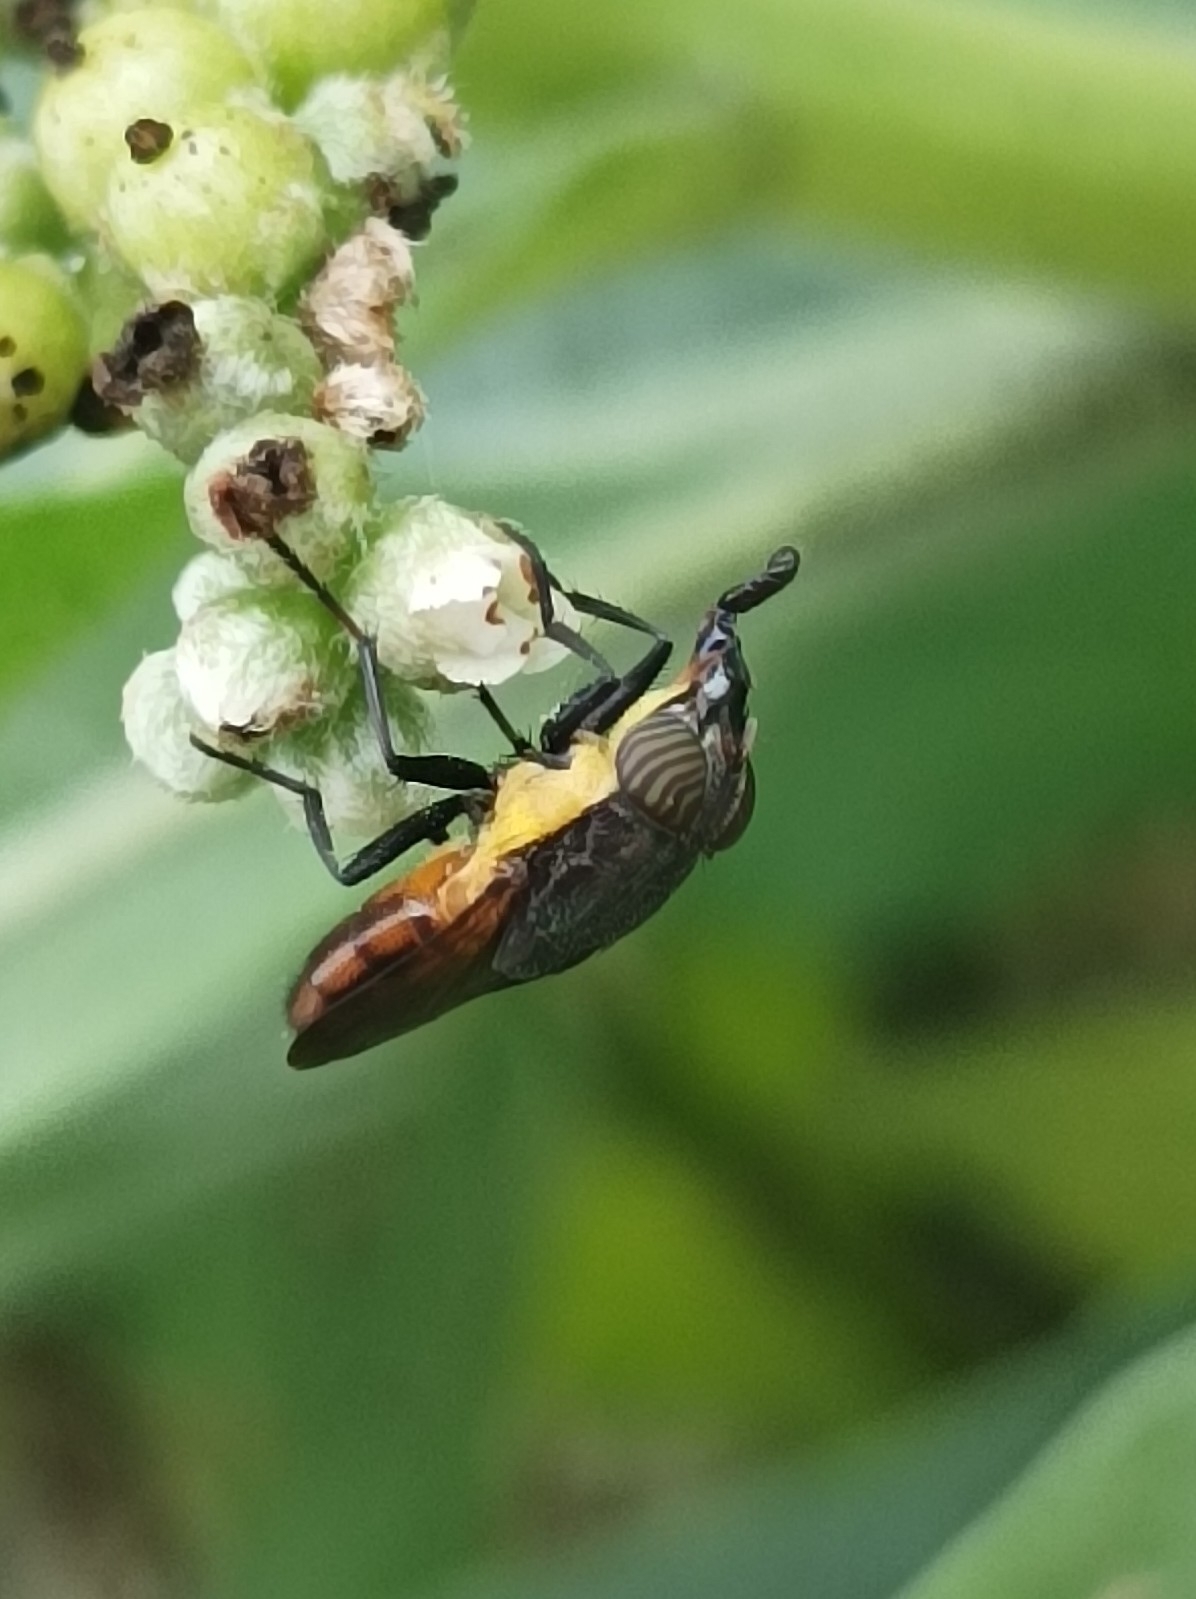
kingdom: Animalia
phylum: Arthropoda
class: Insecta
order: Diptera
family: Calliphoridae
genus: Idiellopsis
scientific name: Idiellopsis xanthogaster
